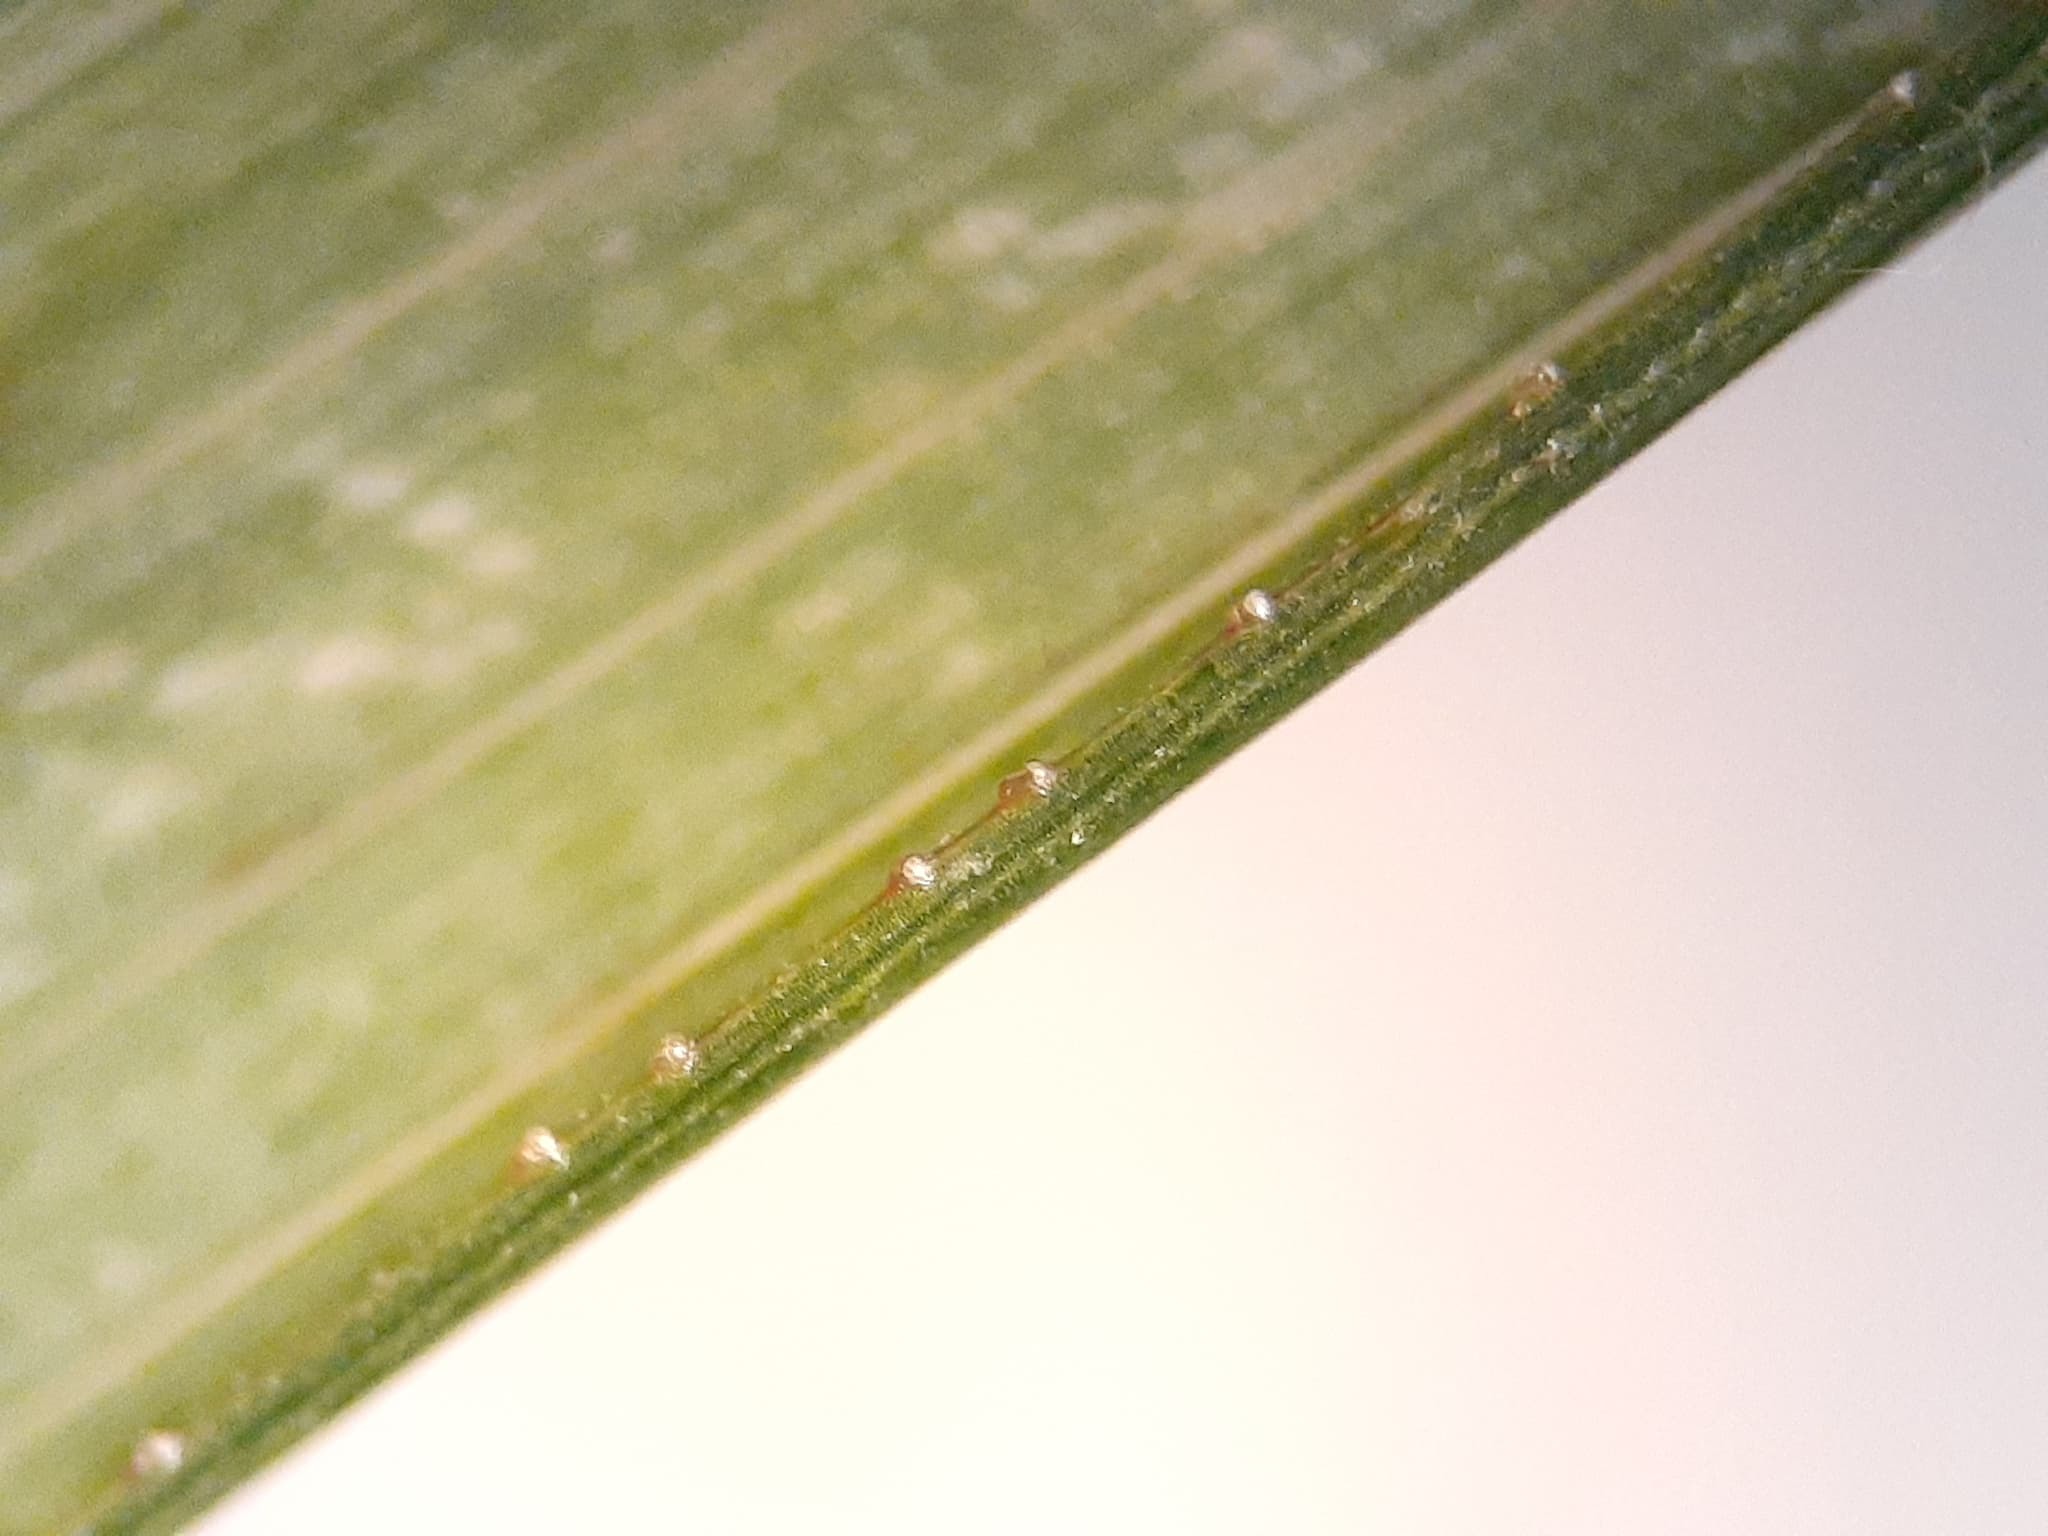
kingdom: Plantae
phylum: Tracheophyta
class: Liliopsida
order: Poales
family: Poaceae
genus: Eragrostis
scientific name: Eragrostis cilianensis
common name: Stinkgrass
